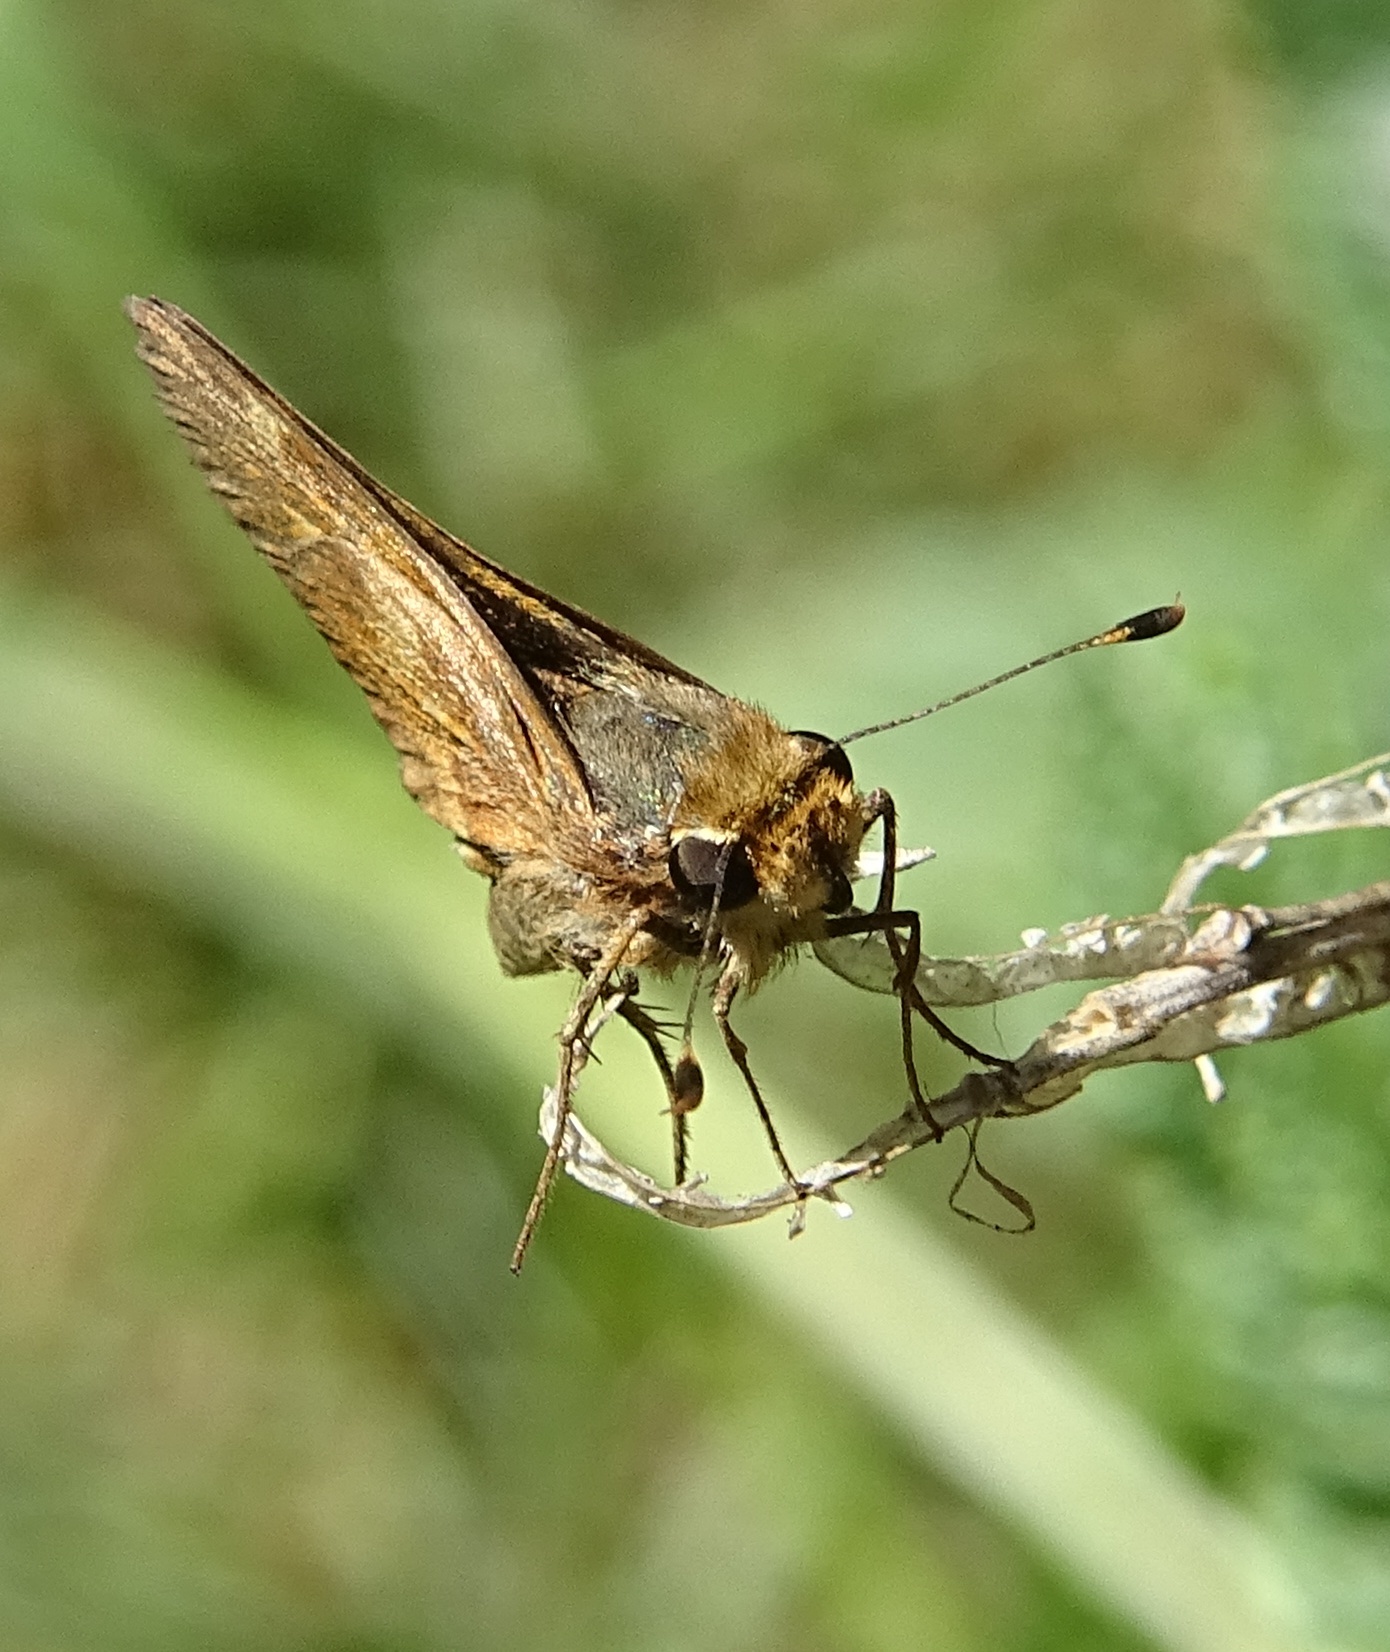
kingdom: Animalia
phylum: Arthropoda
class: Insecta
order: Lepidoptera
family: Hesperiidae
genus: Lon
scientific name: Lon melane
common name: Umber skipper
